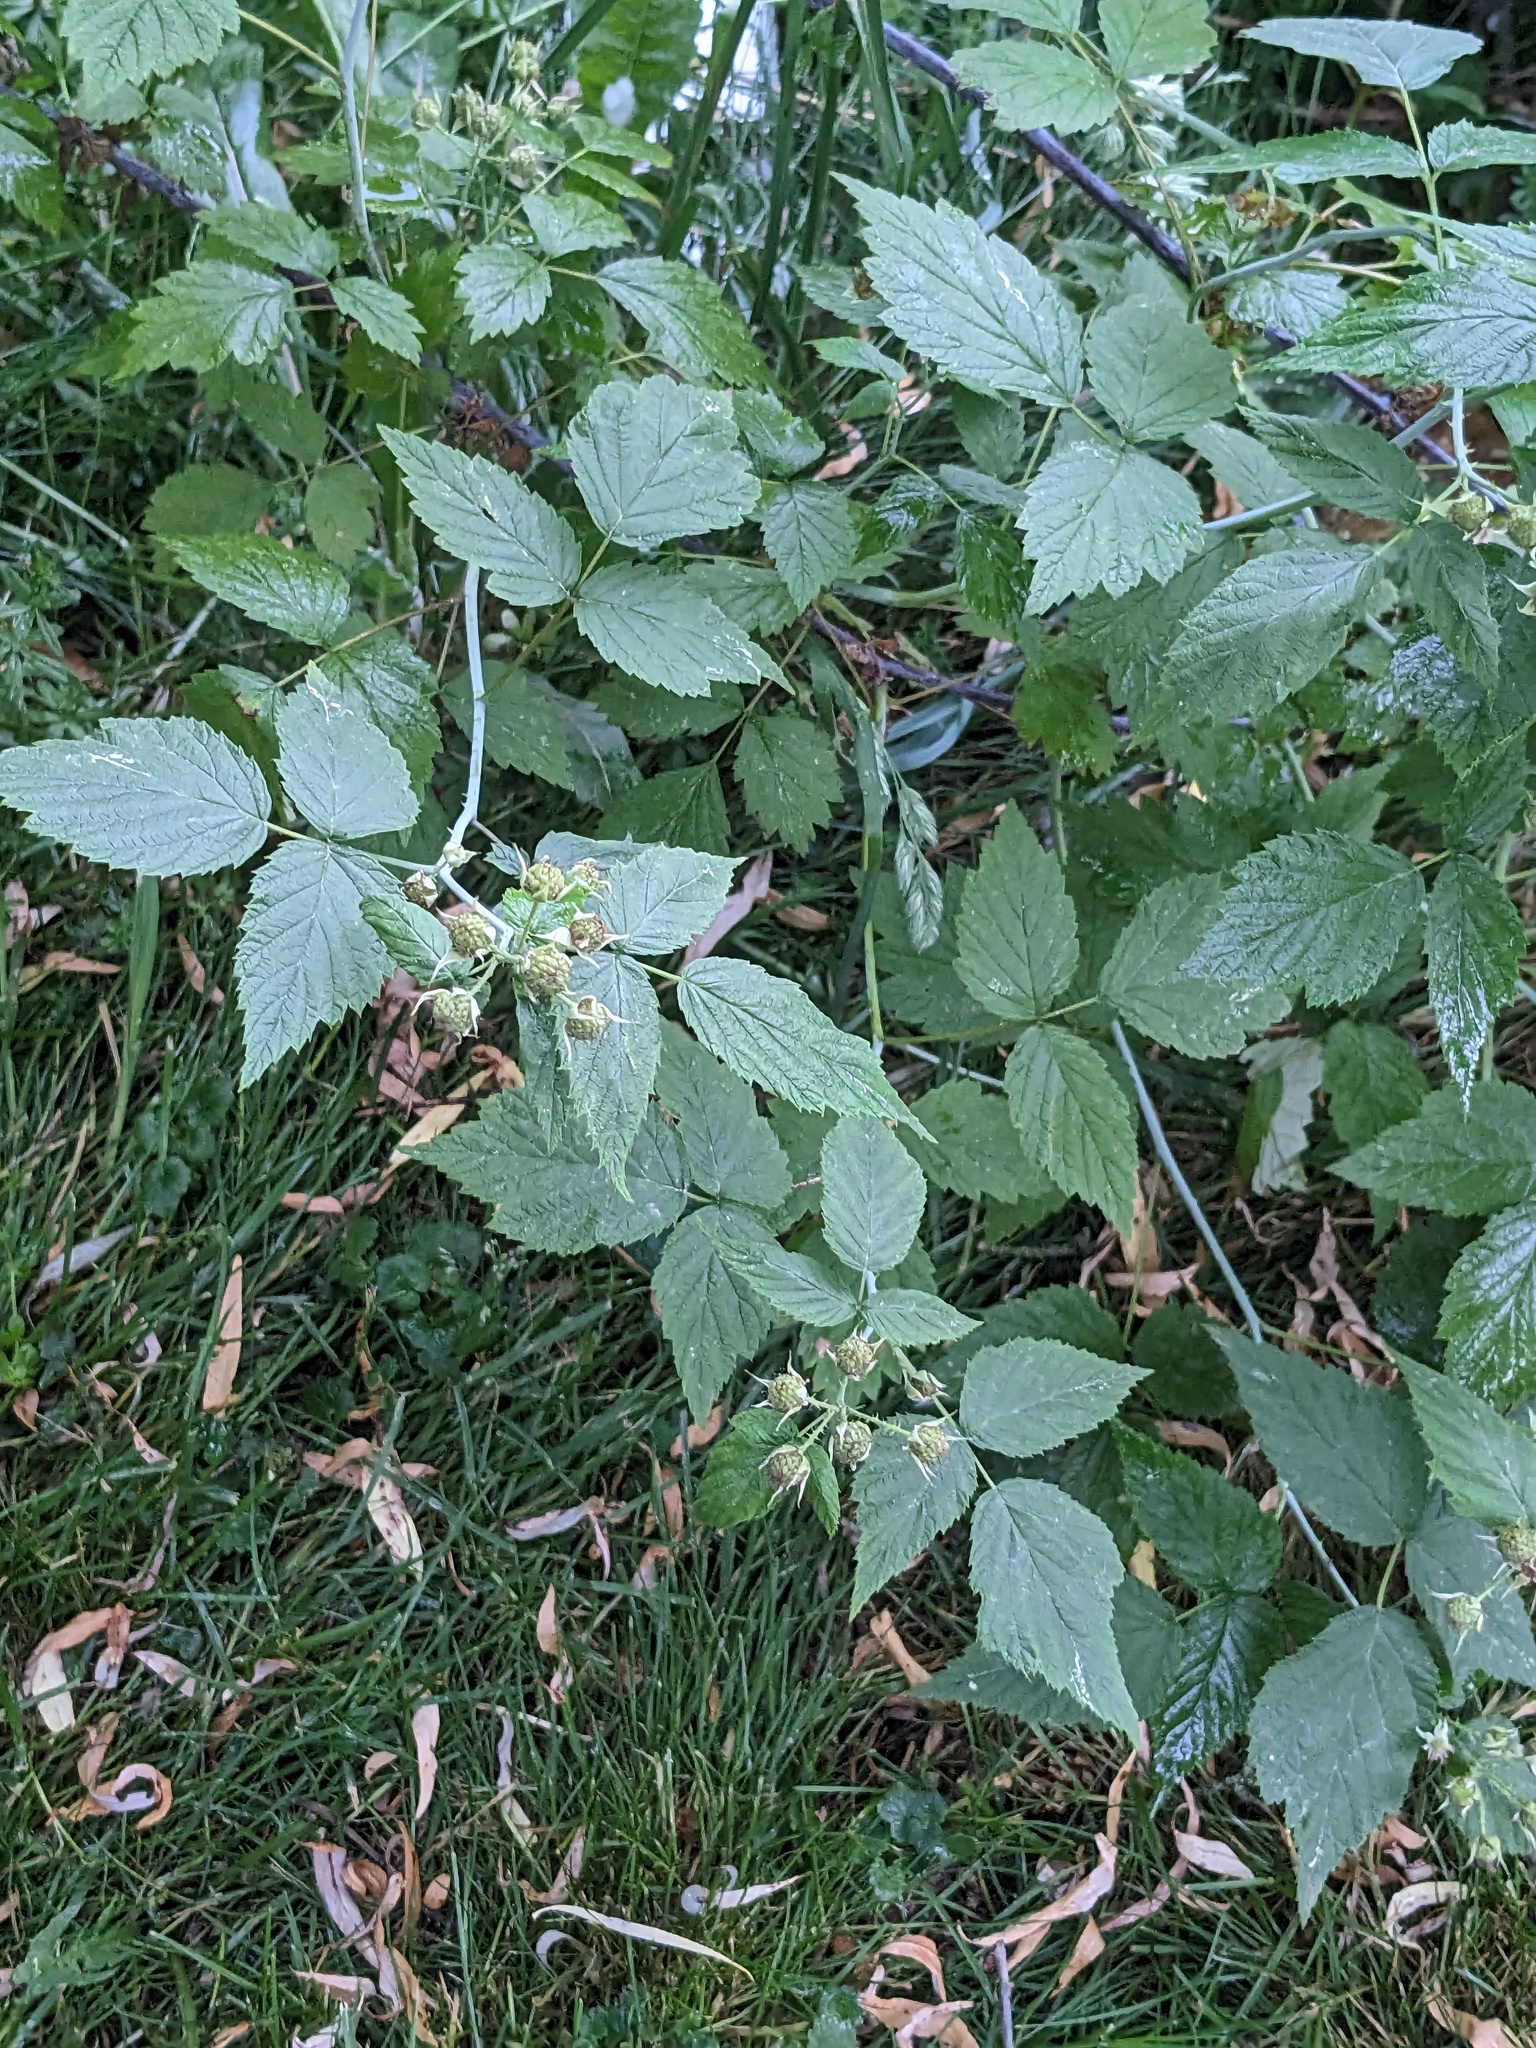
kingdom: Plantae
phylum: Tracheophyta
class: Magnoliopsida
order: Rosales
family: Rosaceae
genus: Rubus
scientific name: Rubus occidentalis
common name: Black raspberry
